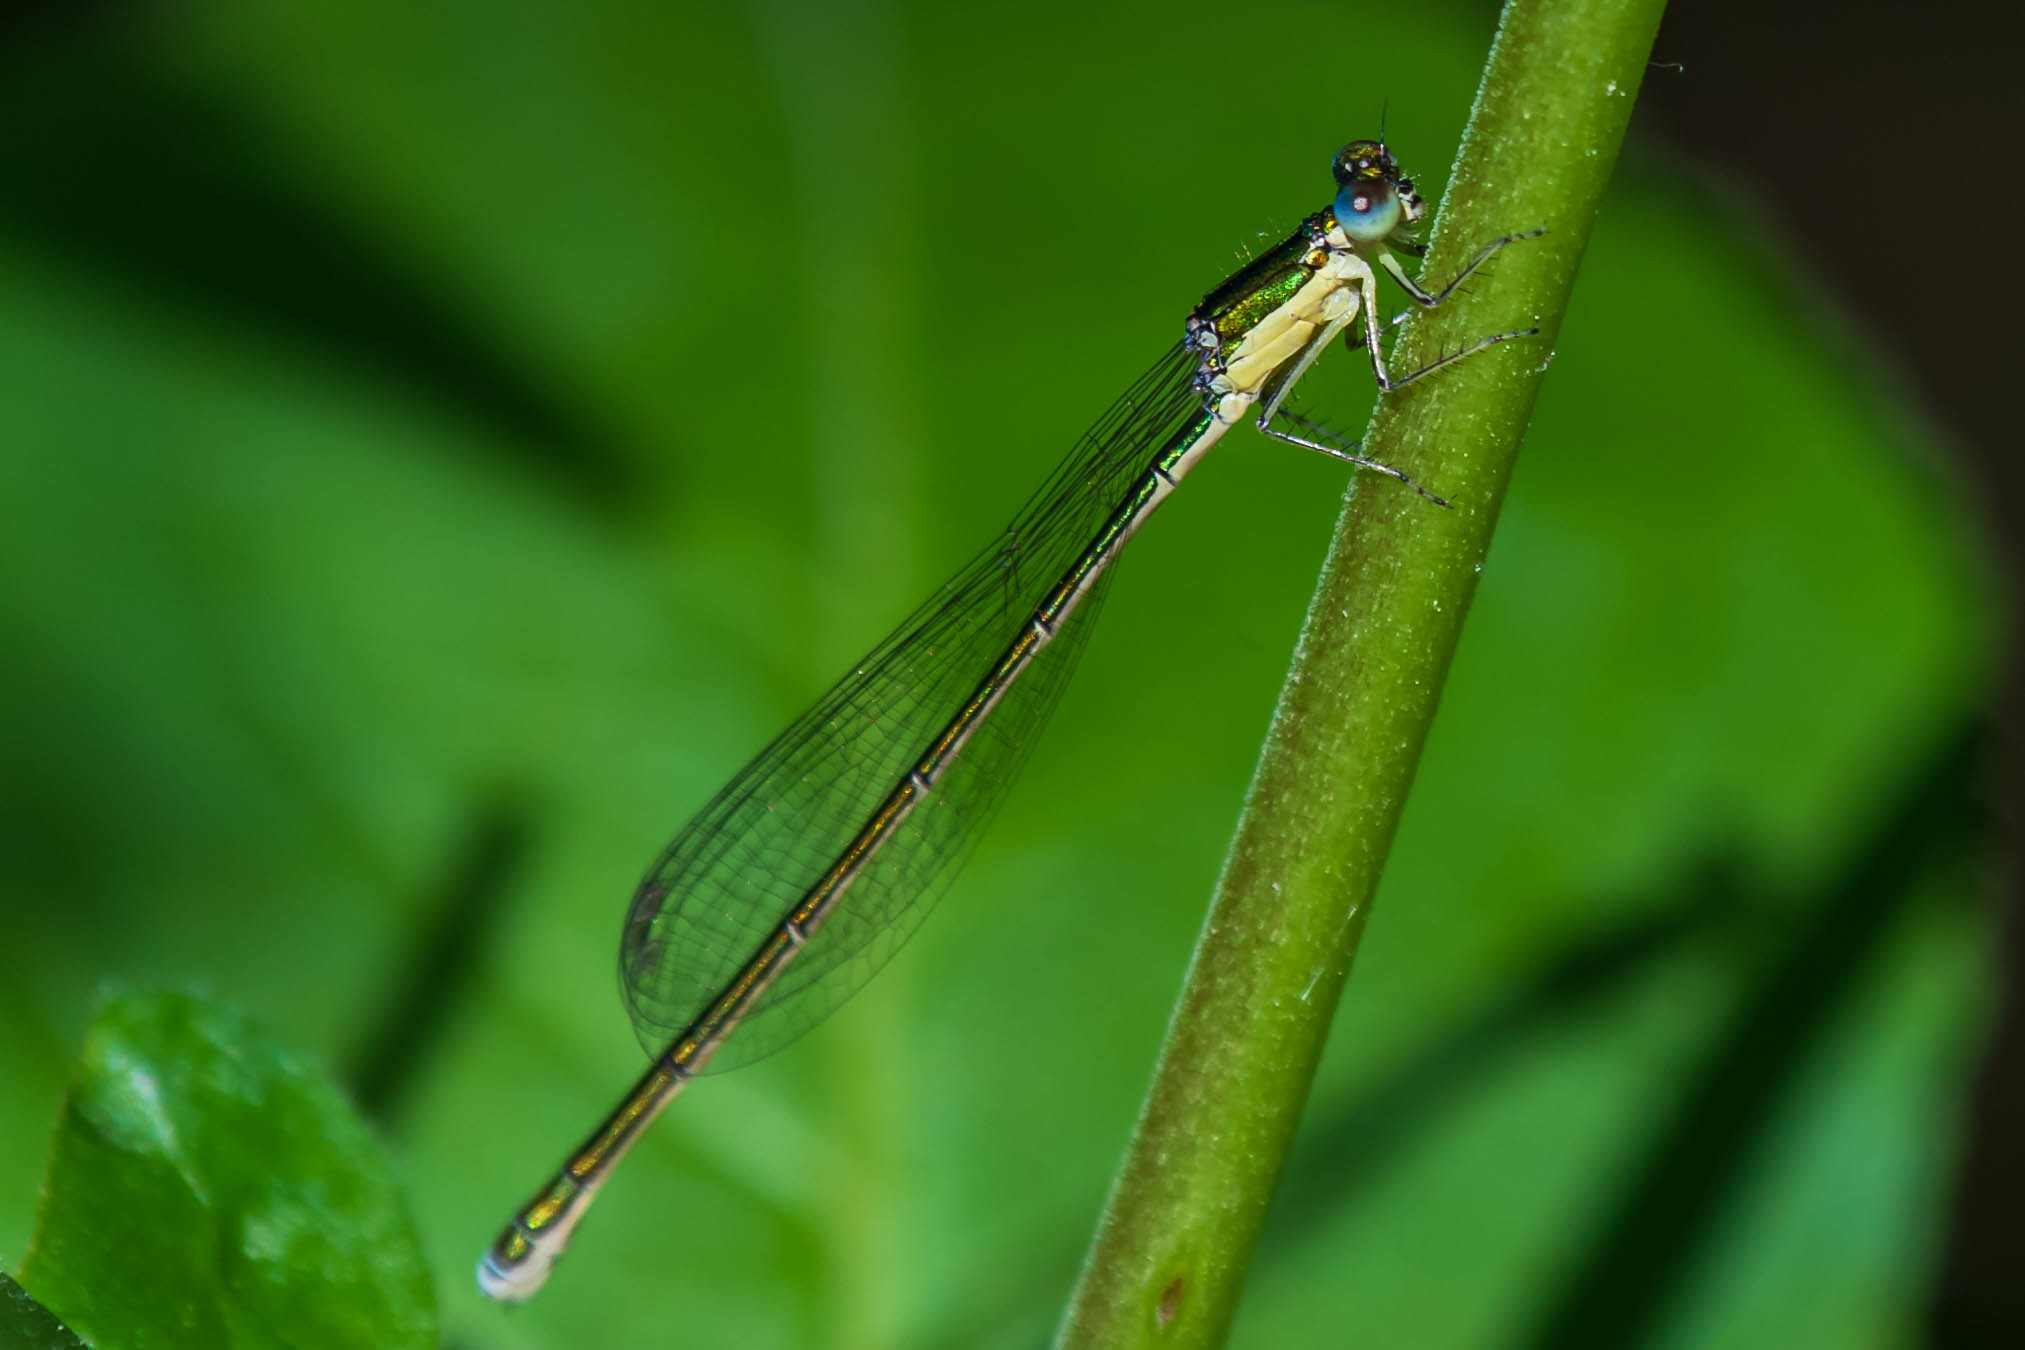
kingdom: Animalia
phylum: Arthropoda
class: Insecta
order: Odonata
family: Coenagrionidae
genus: Nehalennia
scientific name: Nehalennia irene
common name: Sedge sprite
